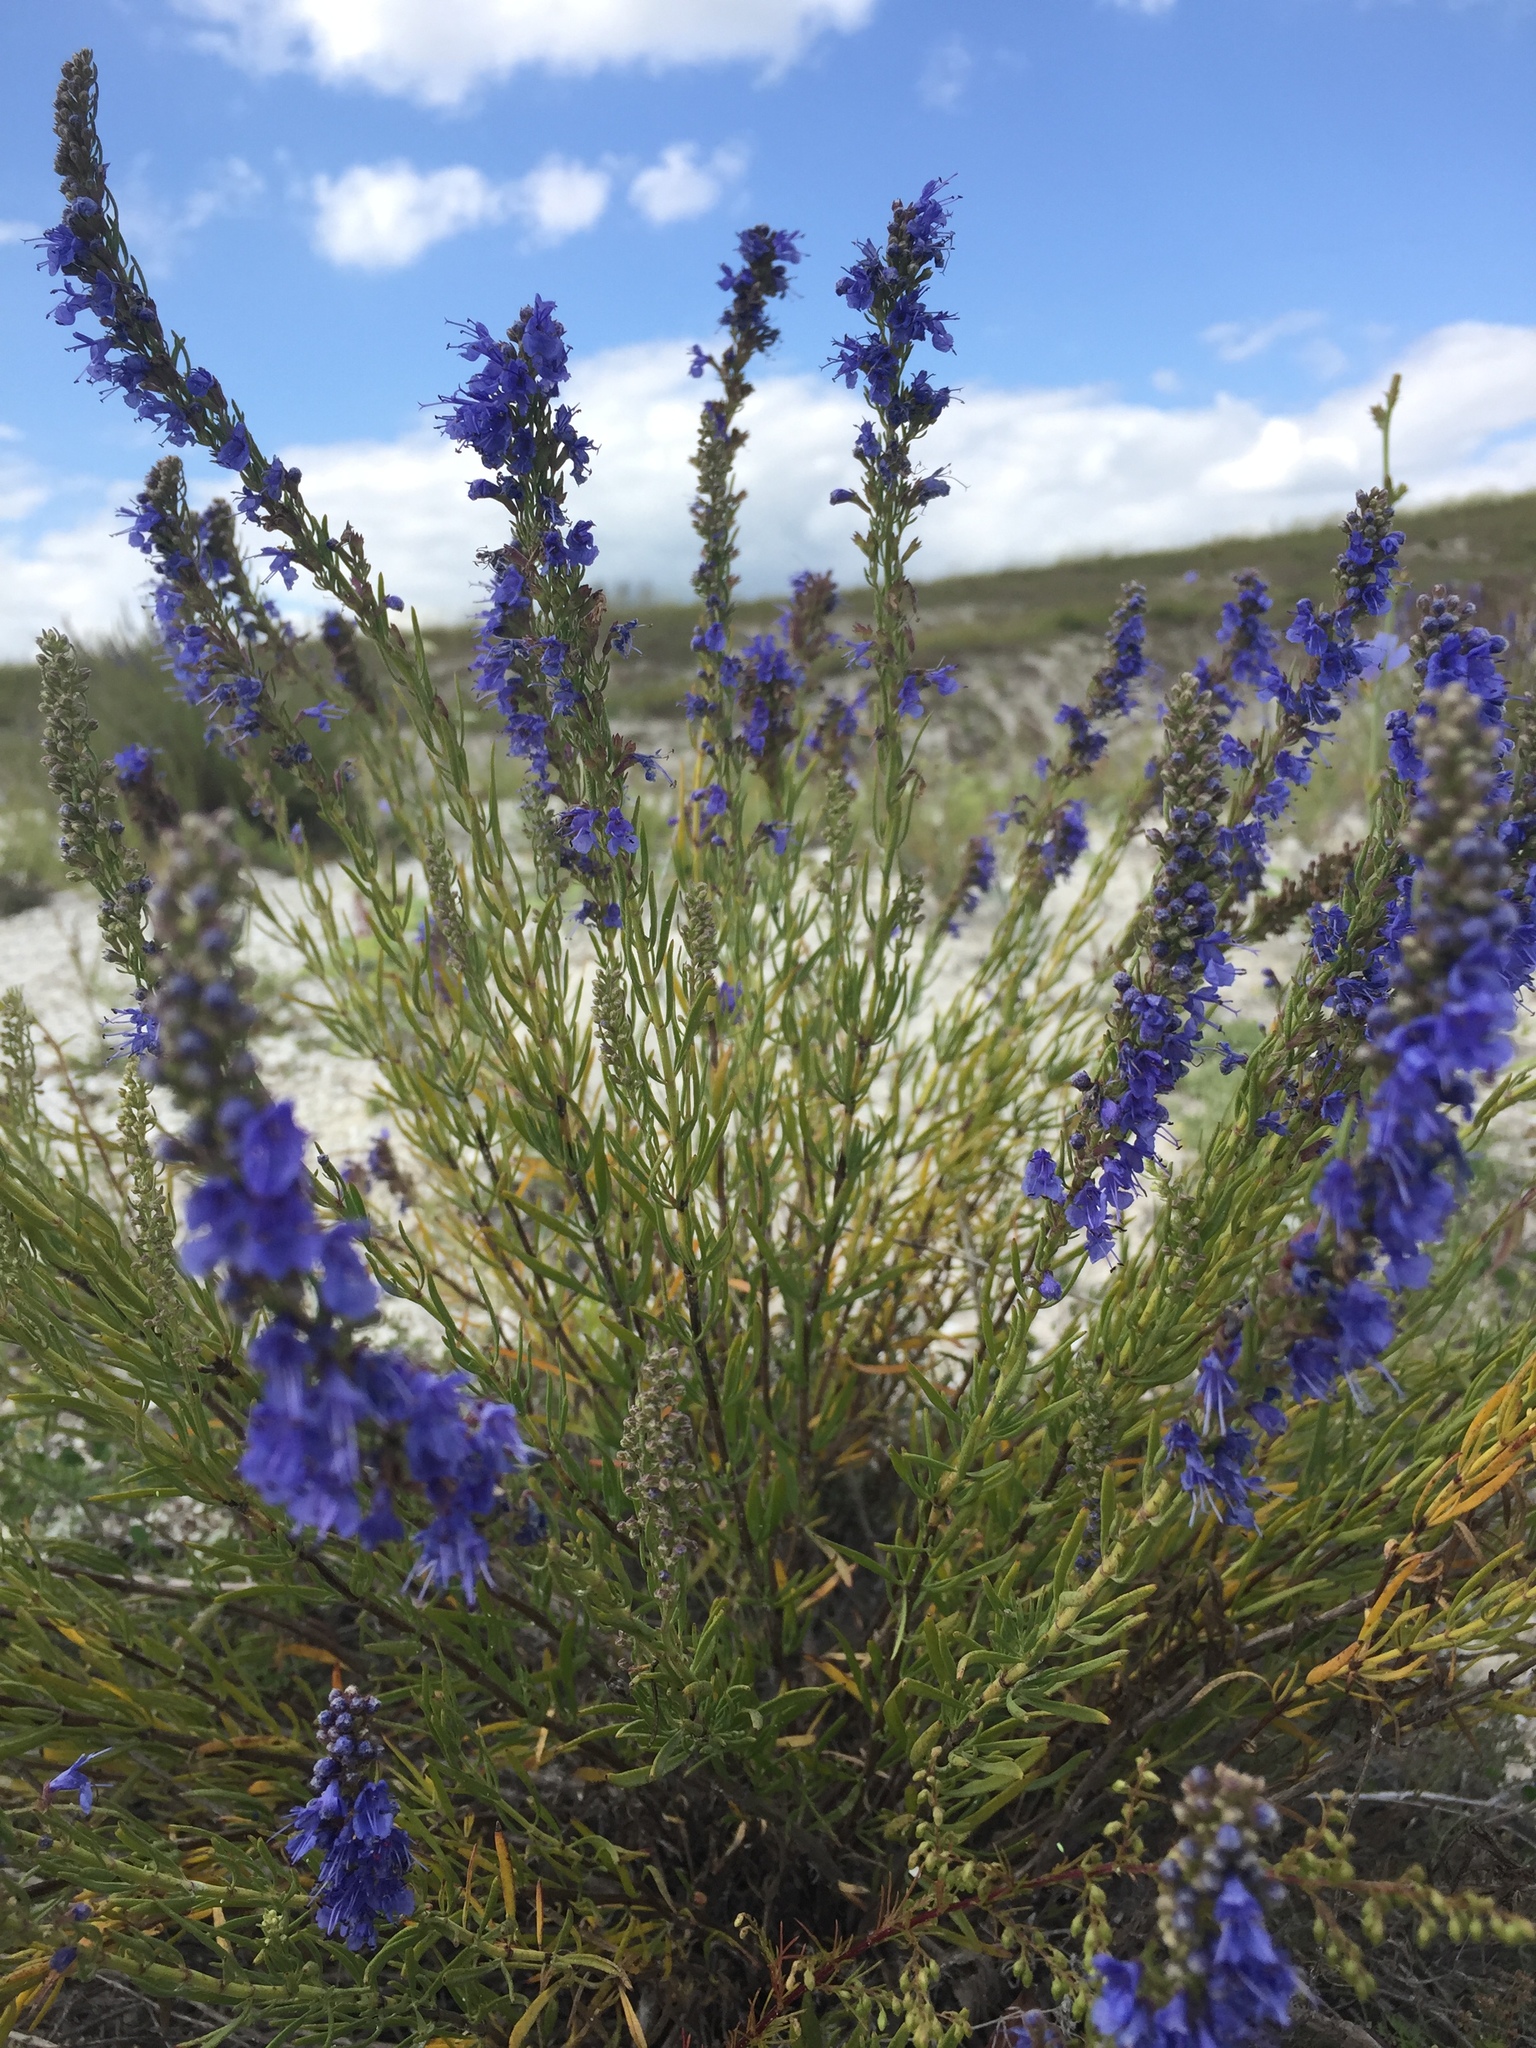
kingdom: Plantae
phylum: Tracheophyta
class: Magnoliopsida
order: Lamiales
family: Lamiaceae
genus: Hyssopus
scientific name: Hyssopus officinalis
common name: Hyssop
